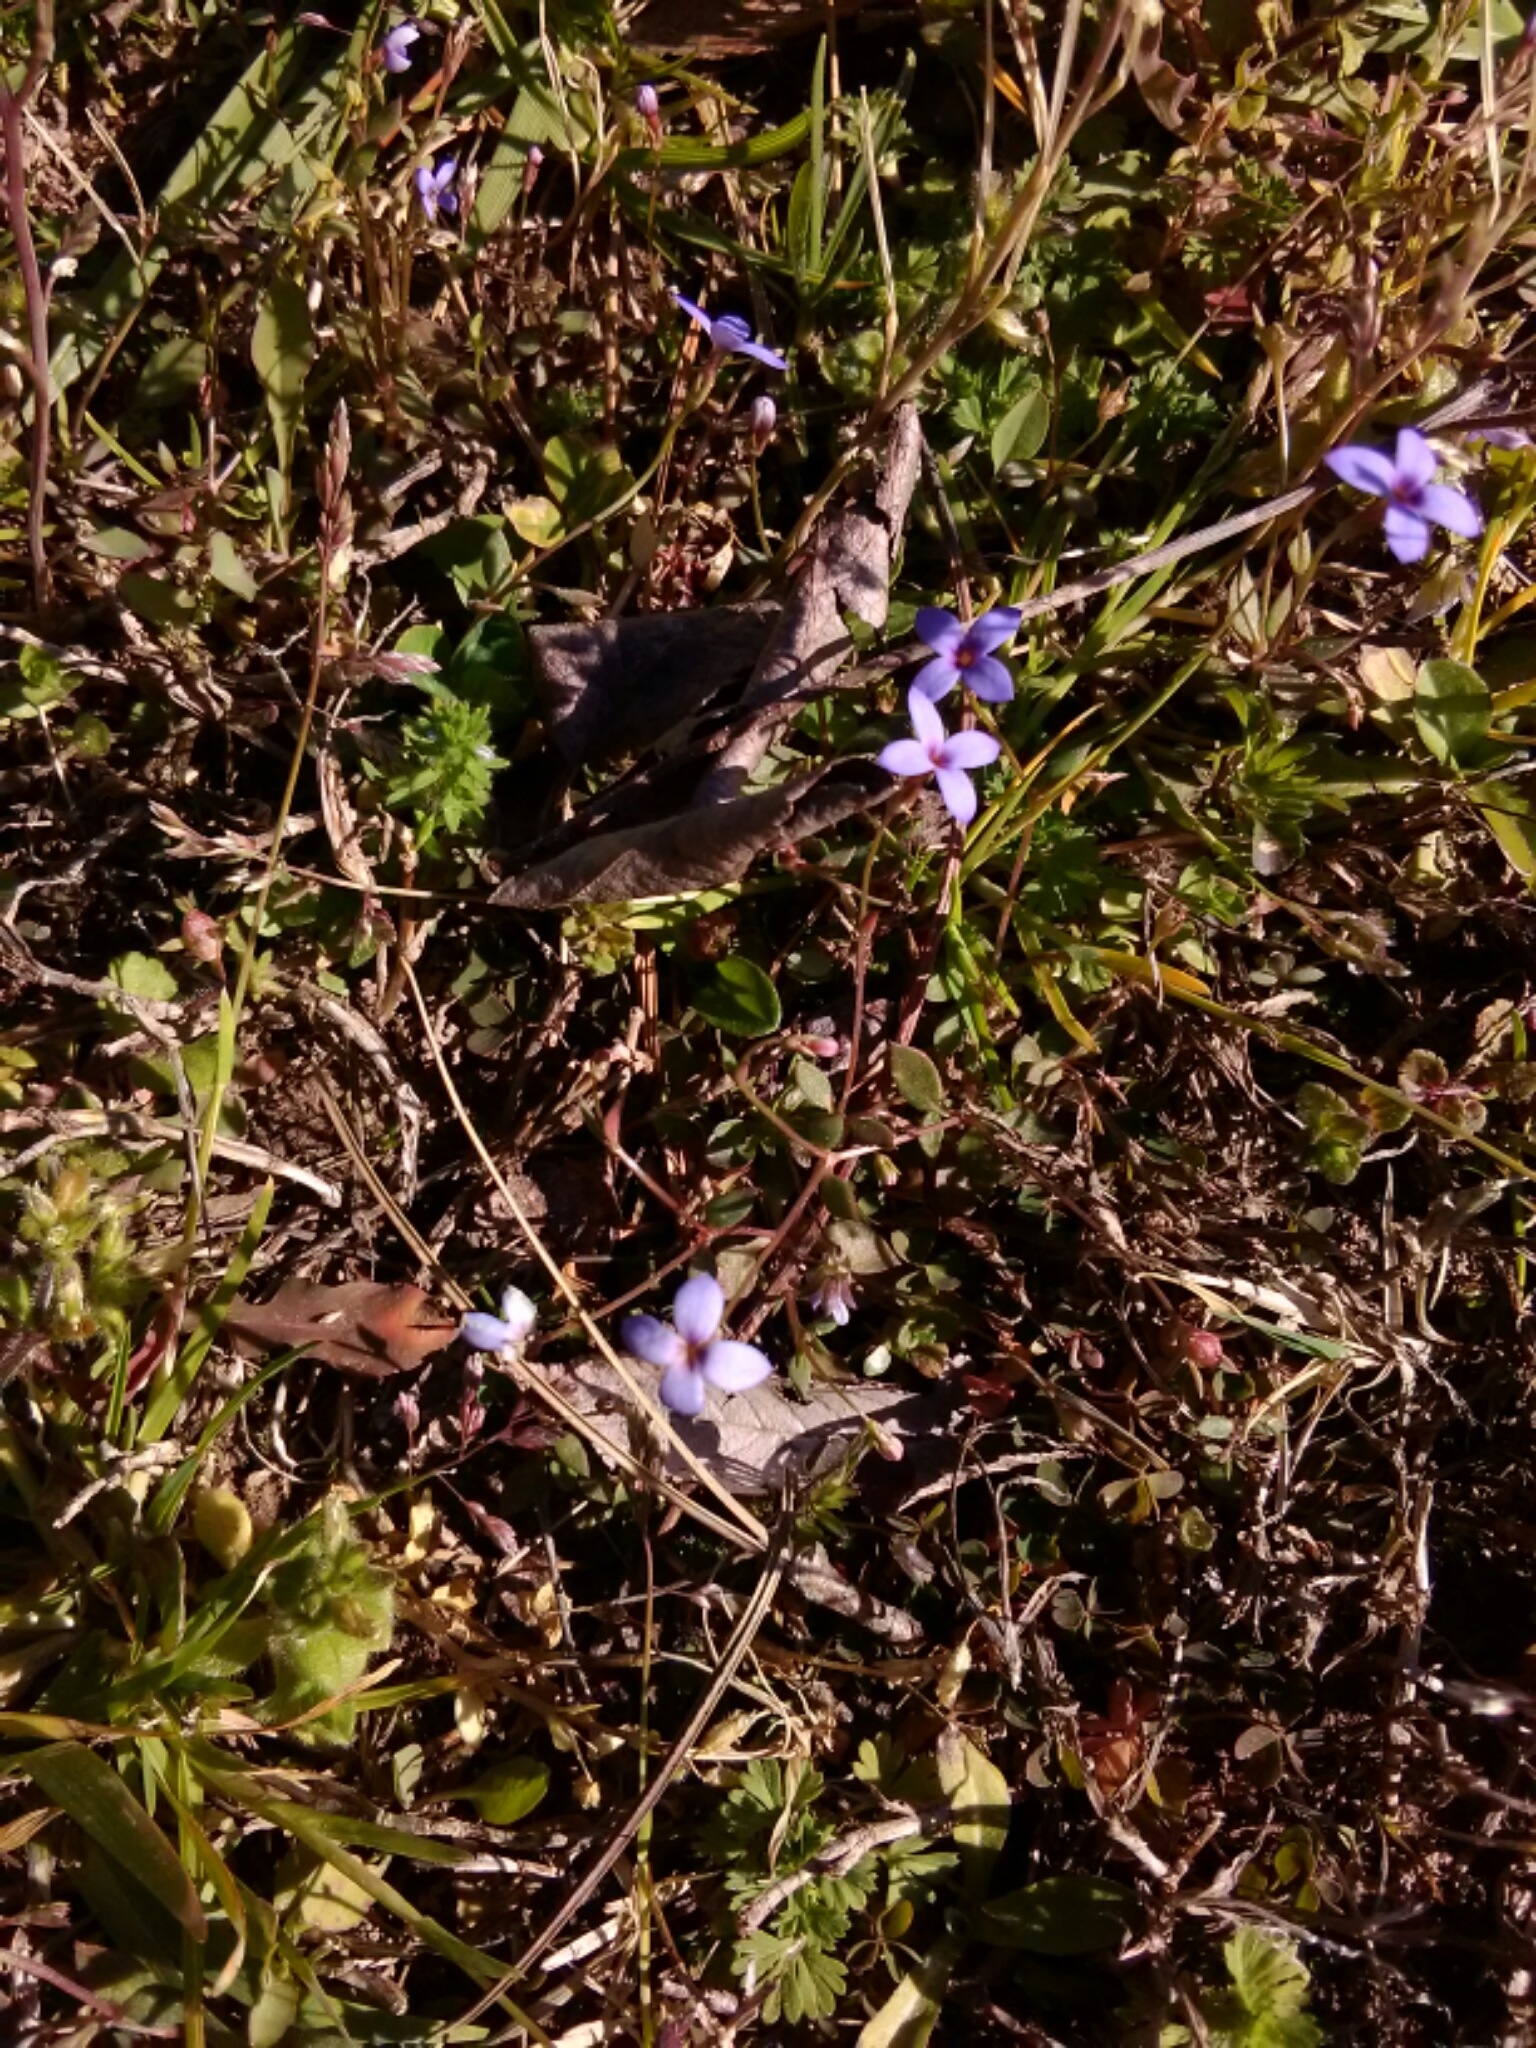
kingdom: Plantae
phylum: Tracheophyta
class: Magnoliopsida
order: Gentianales
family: Rubiaceae
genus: Houstonia
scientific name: Houstonia pusilla
